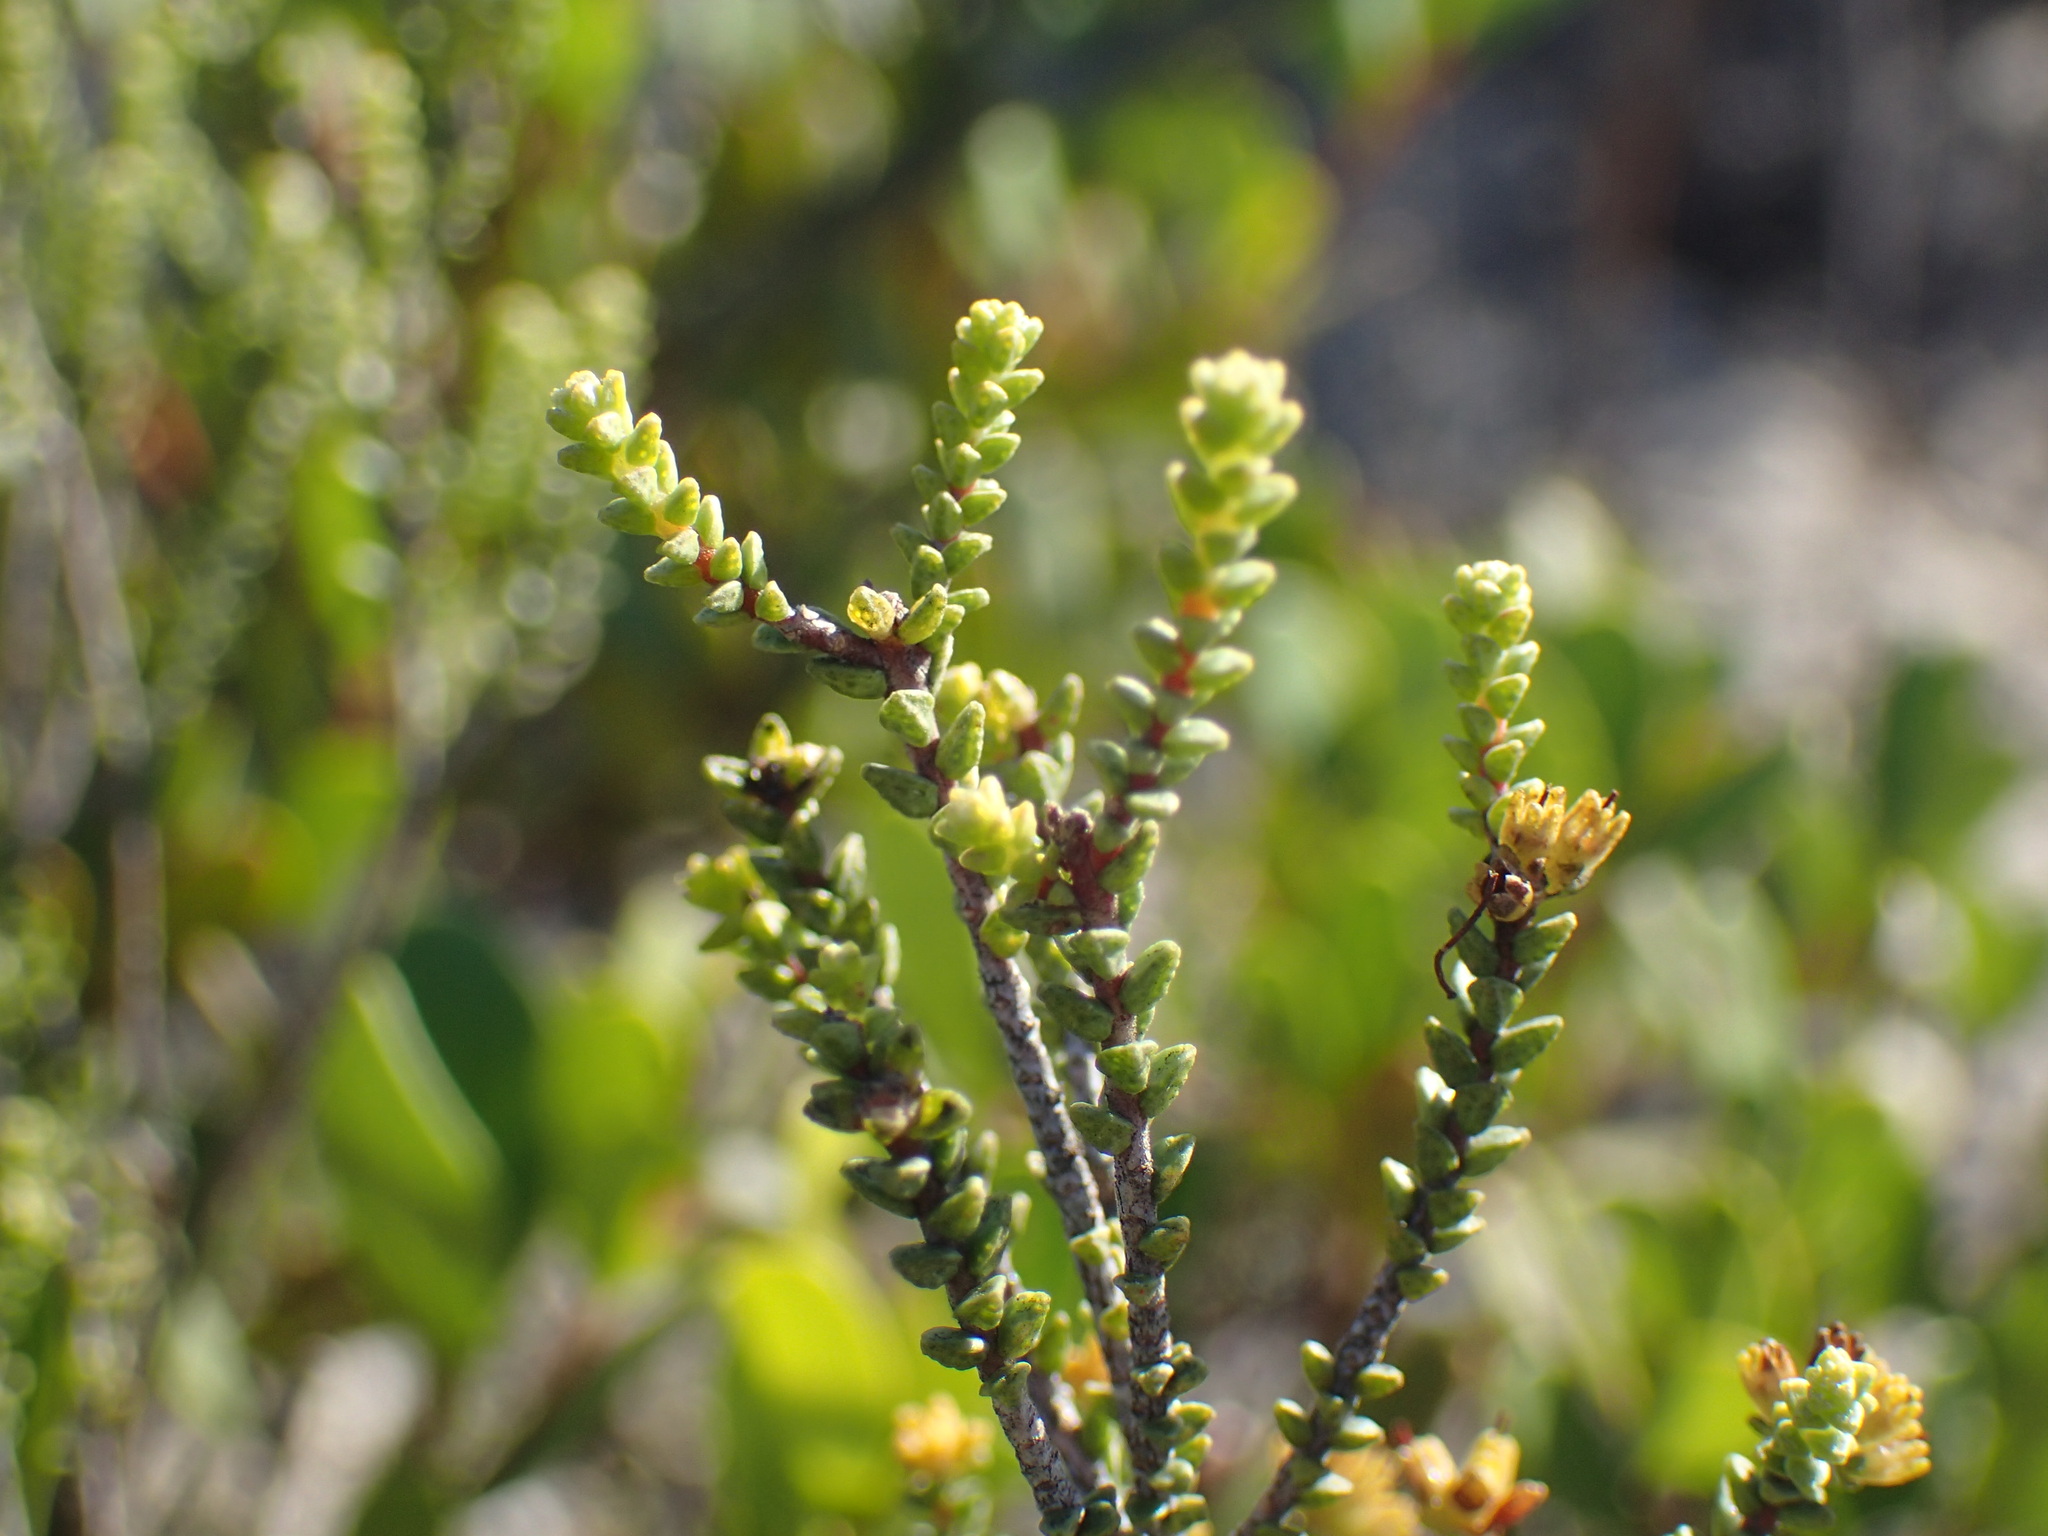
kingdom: Plantae
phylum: Tracheophyta
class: Magnoliopsida
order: Sapindales
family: Rutaceae
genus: Macrostylis
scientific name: Macrostylis crassifolia
